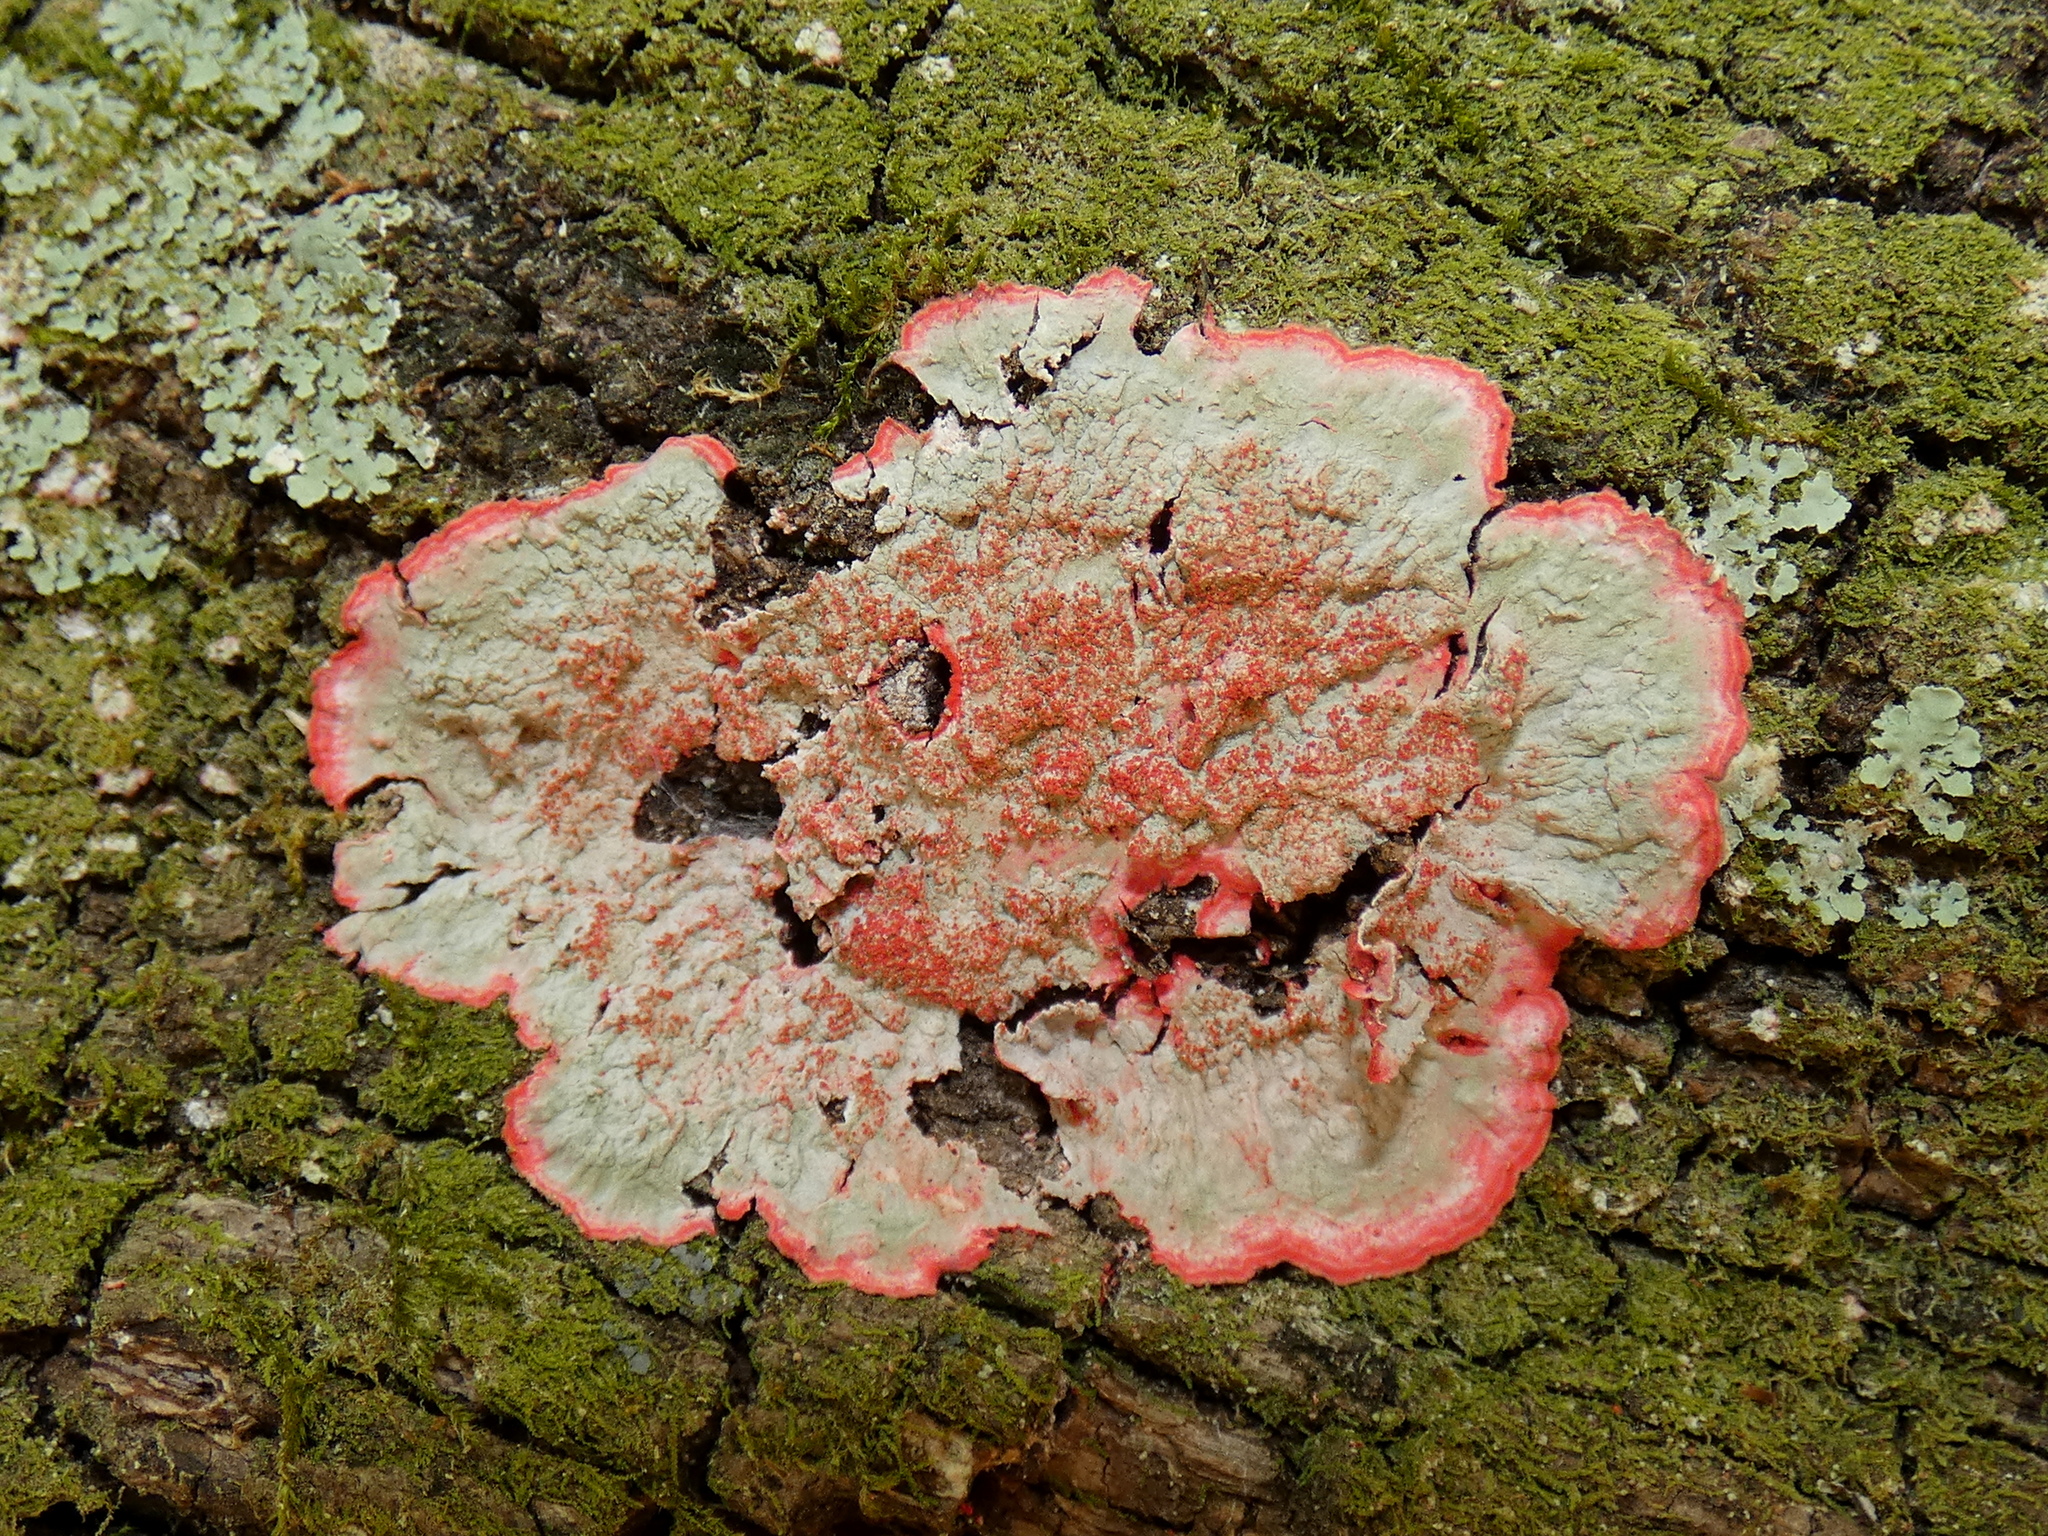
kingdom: Fungi
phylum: Ascomycota
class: Arthoniomycetes
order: Arthoniales
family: Arthoniaceae
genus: Herpothallon
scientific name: Herpothallon rubrocinctum
